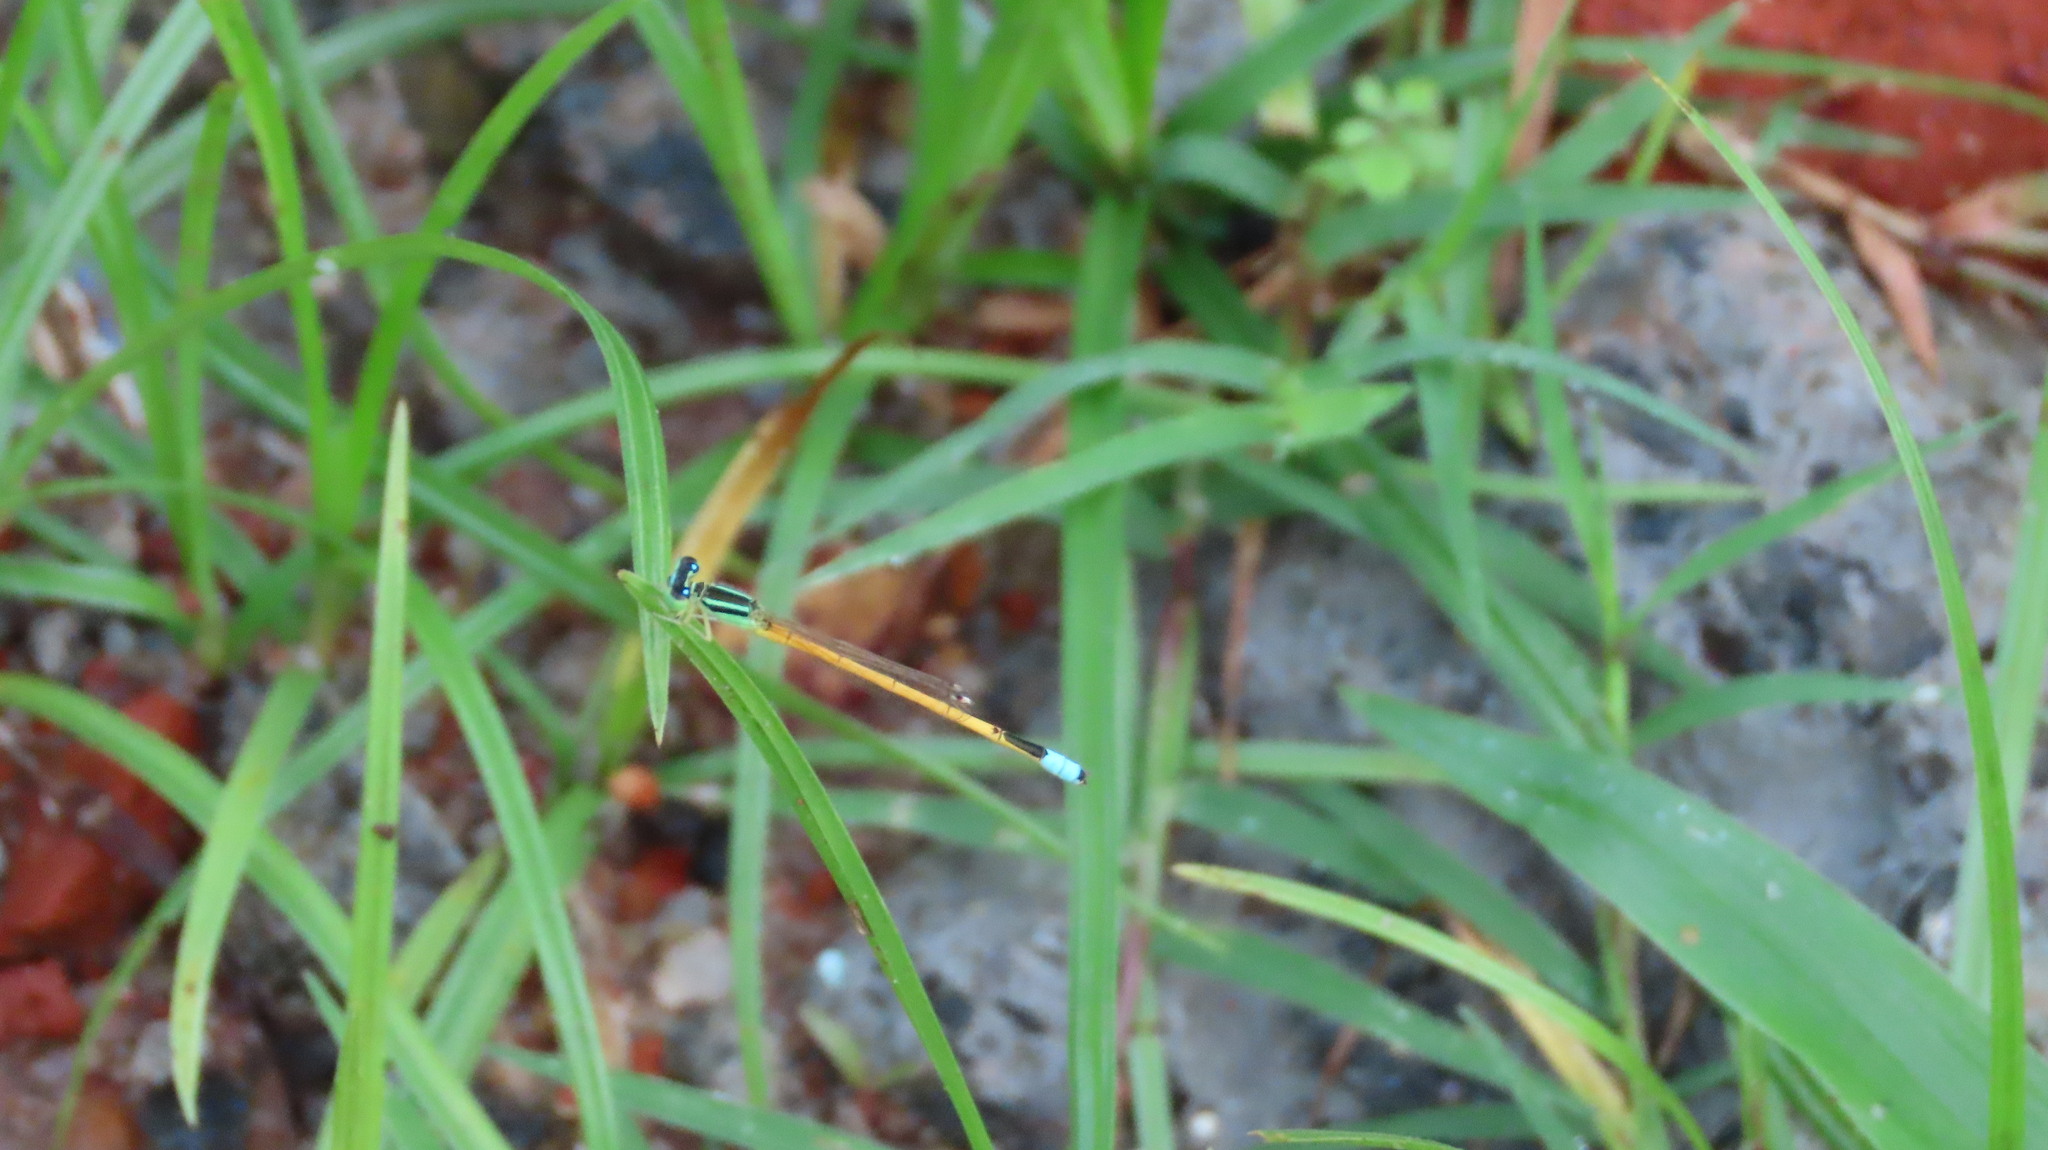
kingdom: Animalia
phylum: Arthropoda
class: Insecta
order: Odonata
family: Coenagrionidae
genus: Ischnura
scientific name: Ischnura rubilio
